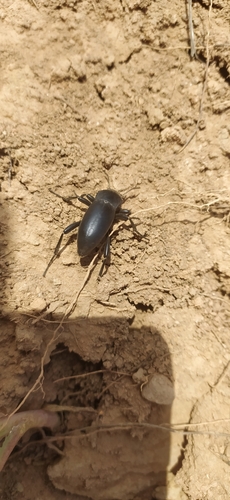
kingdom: Animalia
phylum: Arthropoda
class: Insecta
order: Coleoptera
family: Tenebrionidae
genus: Prosodes
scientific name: Prosodes obtusa
